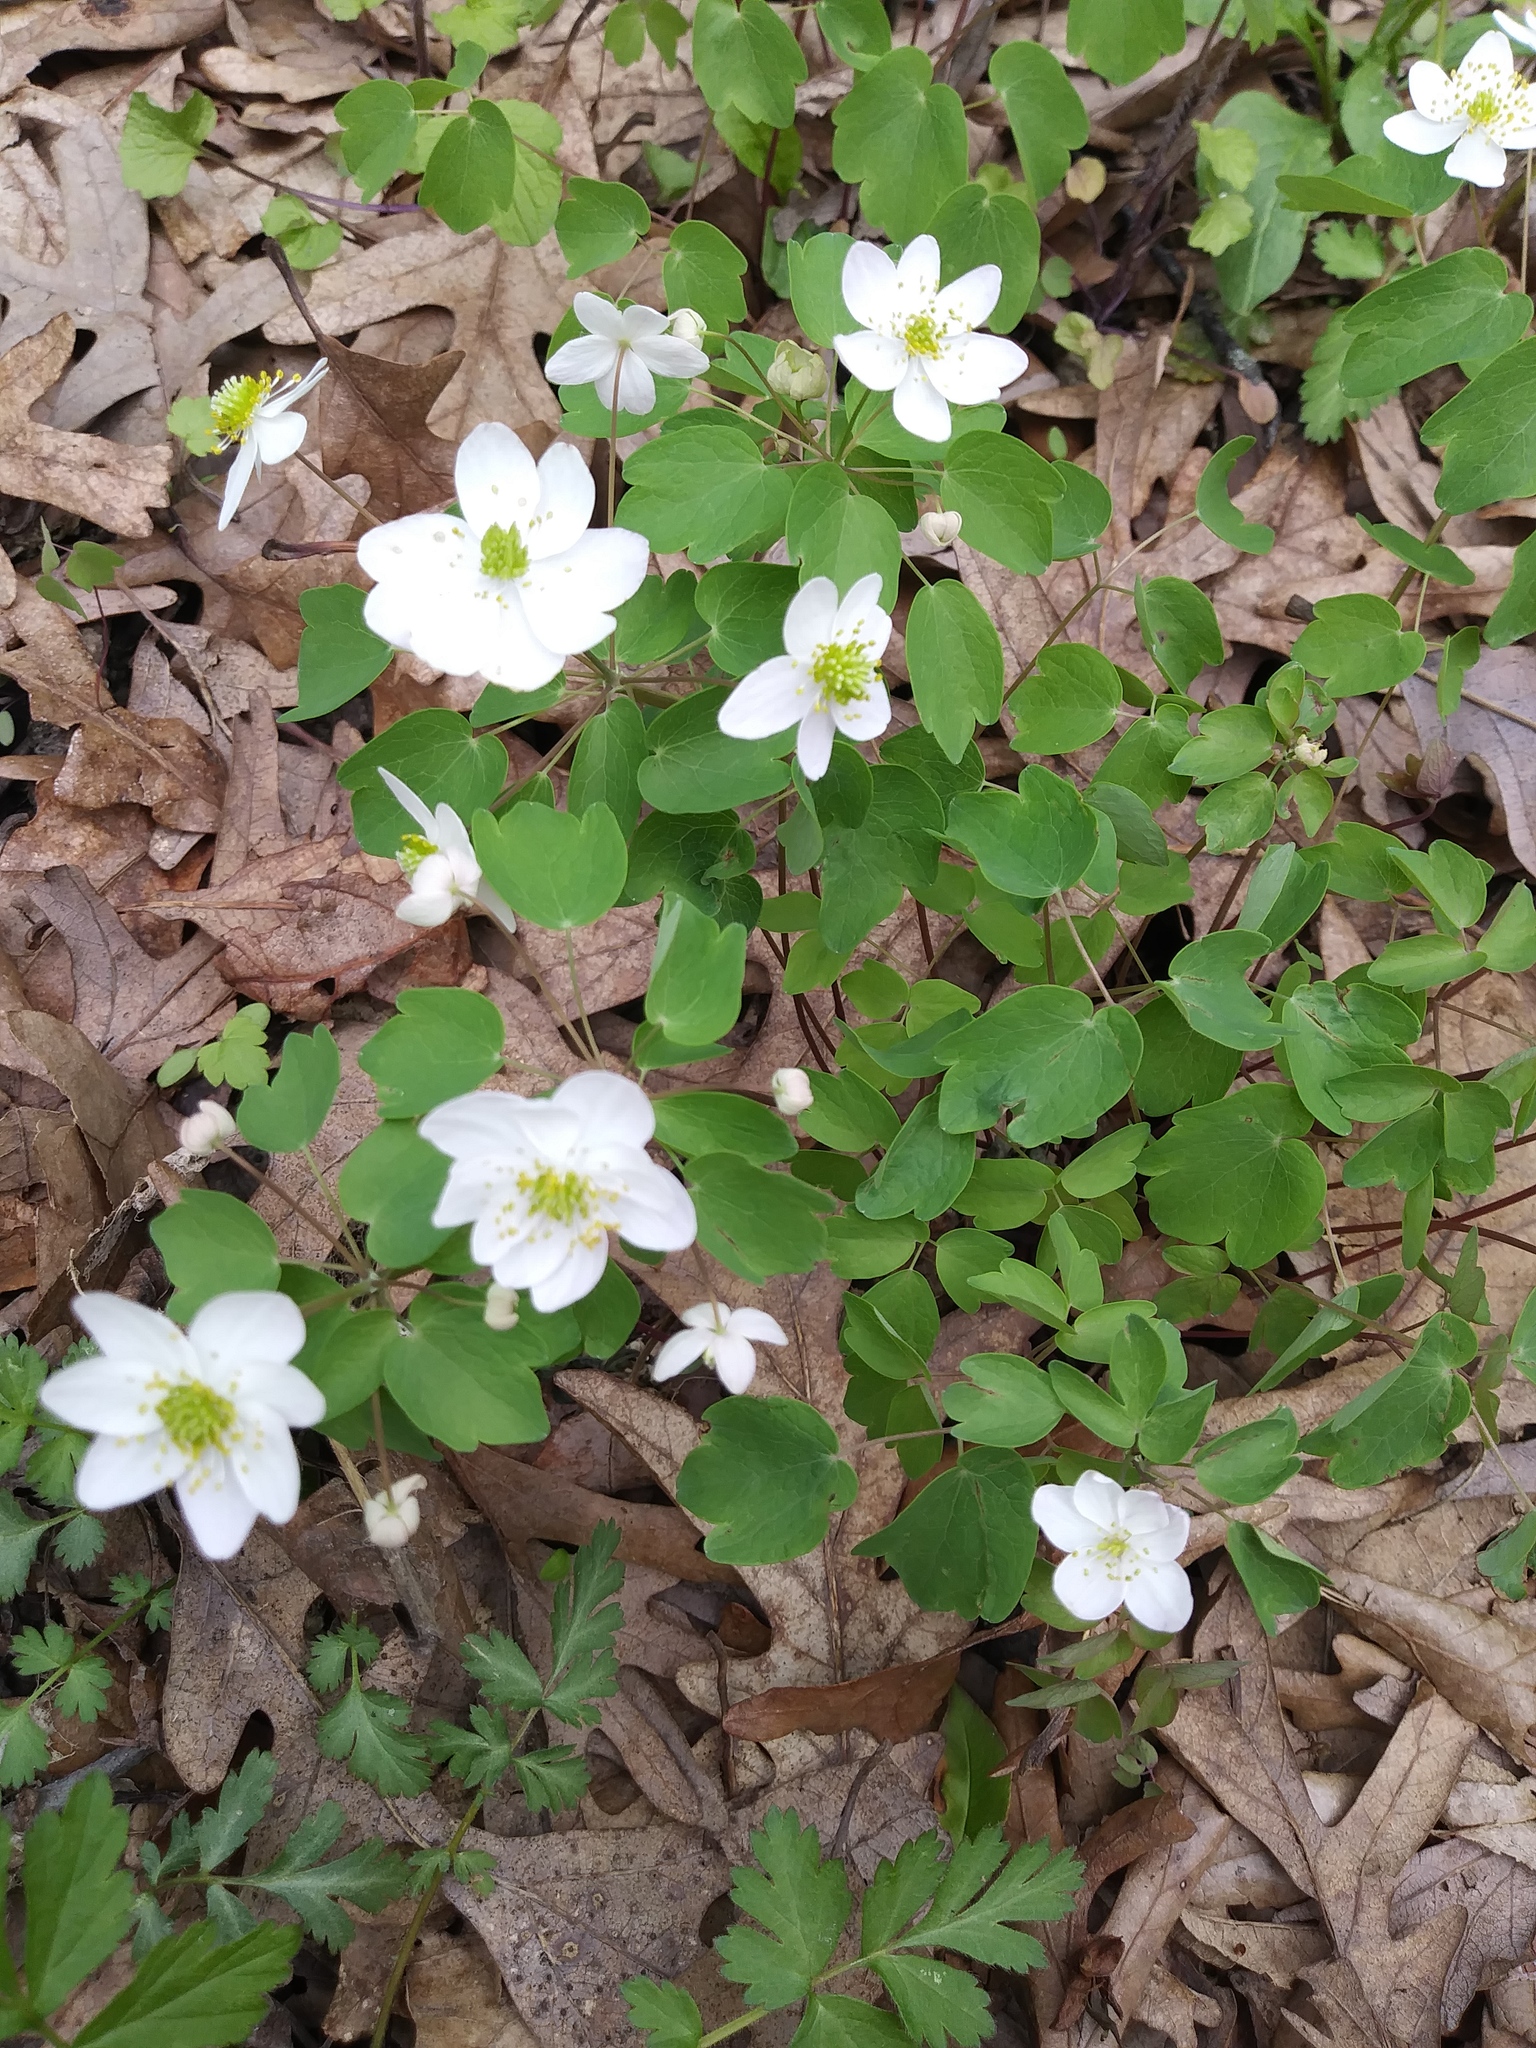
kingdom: Plantae
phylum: Tracheophyta
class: Magnoliopsida
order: Ranunculales
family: Ranunculaceae
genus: Thalictrum
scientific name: Thalictrum thalictroides
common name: Rue-anemone
